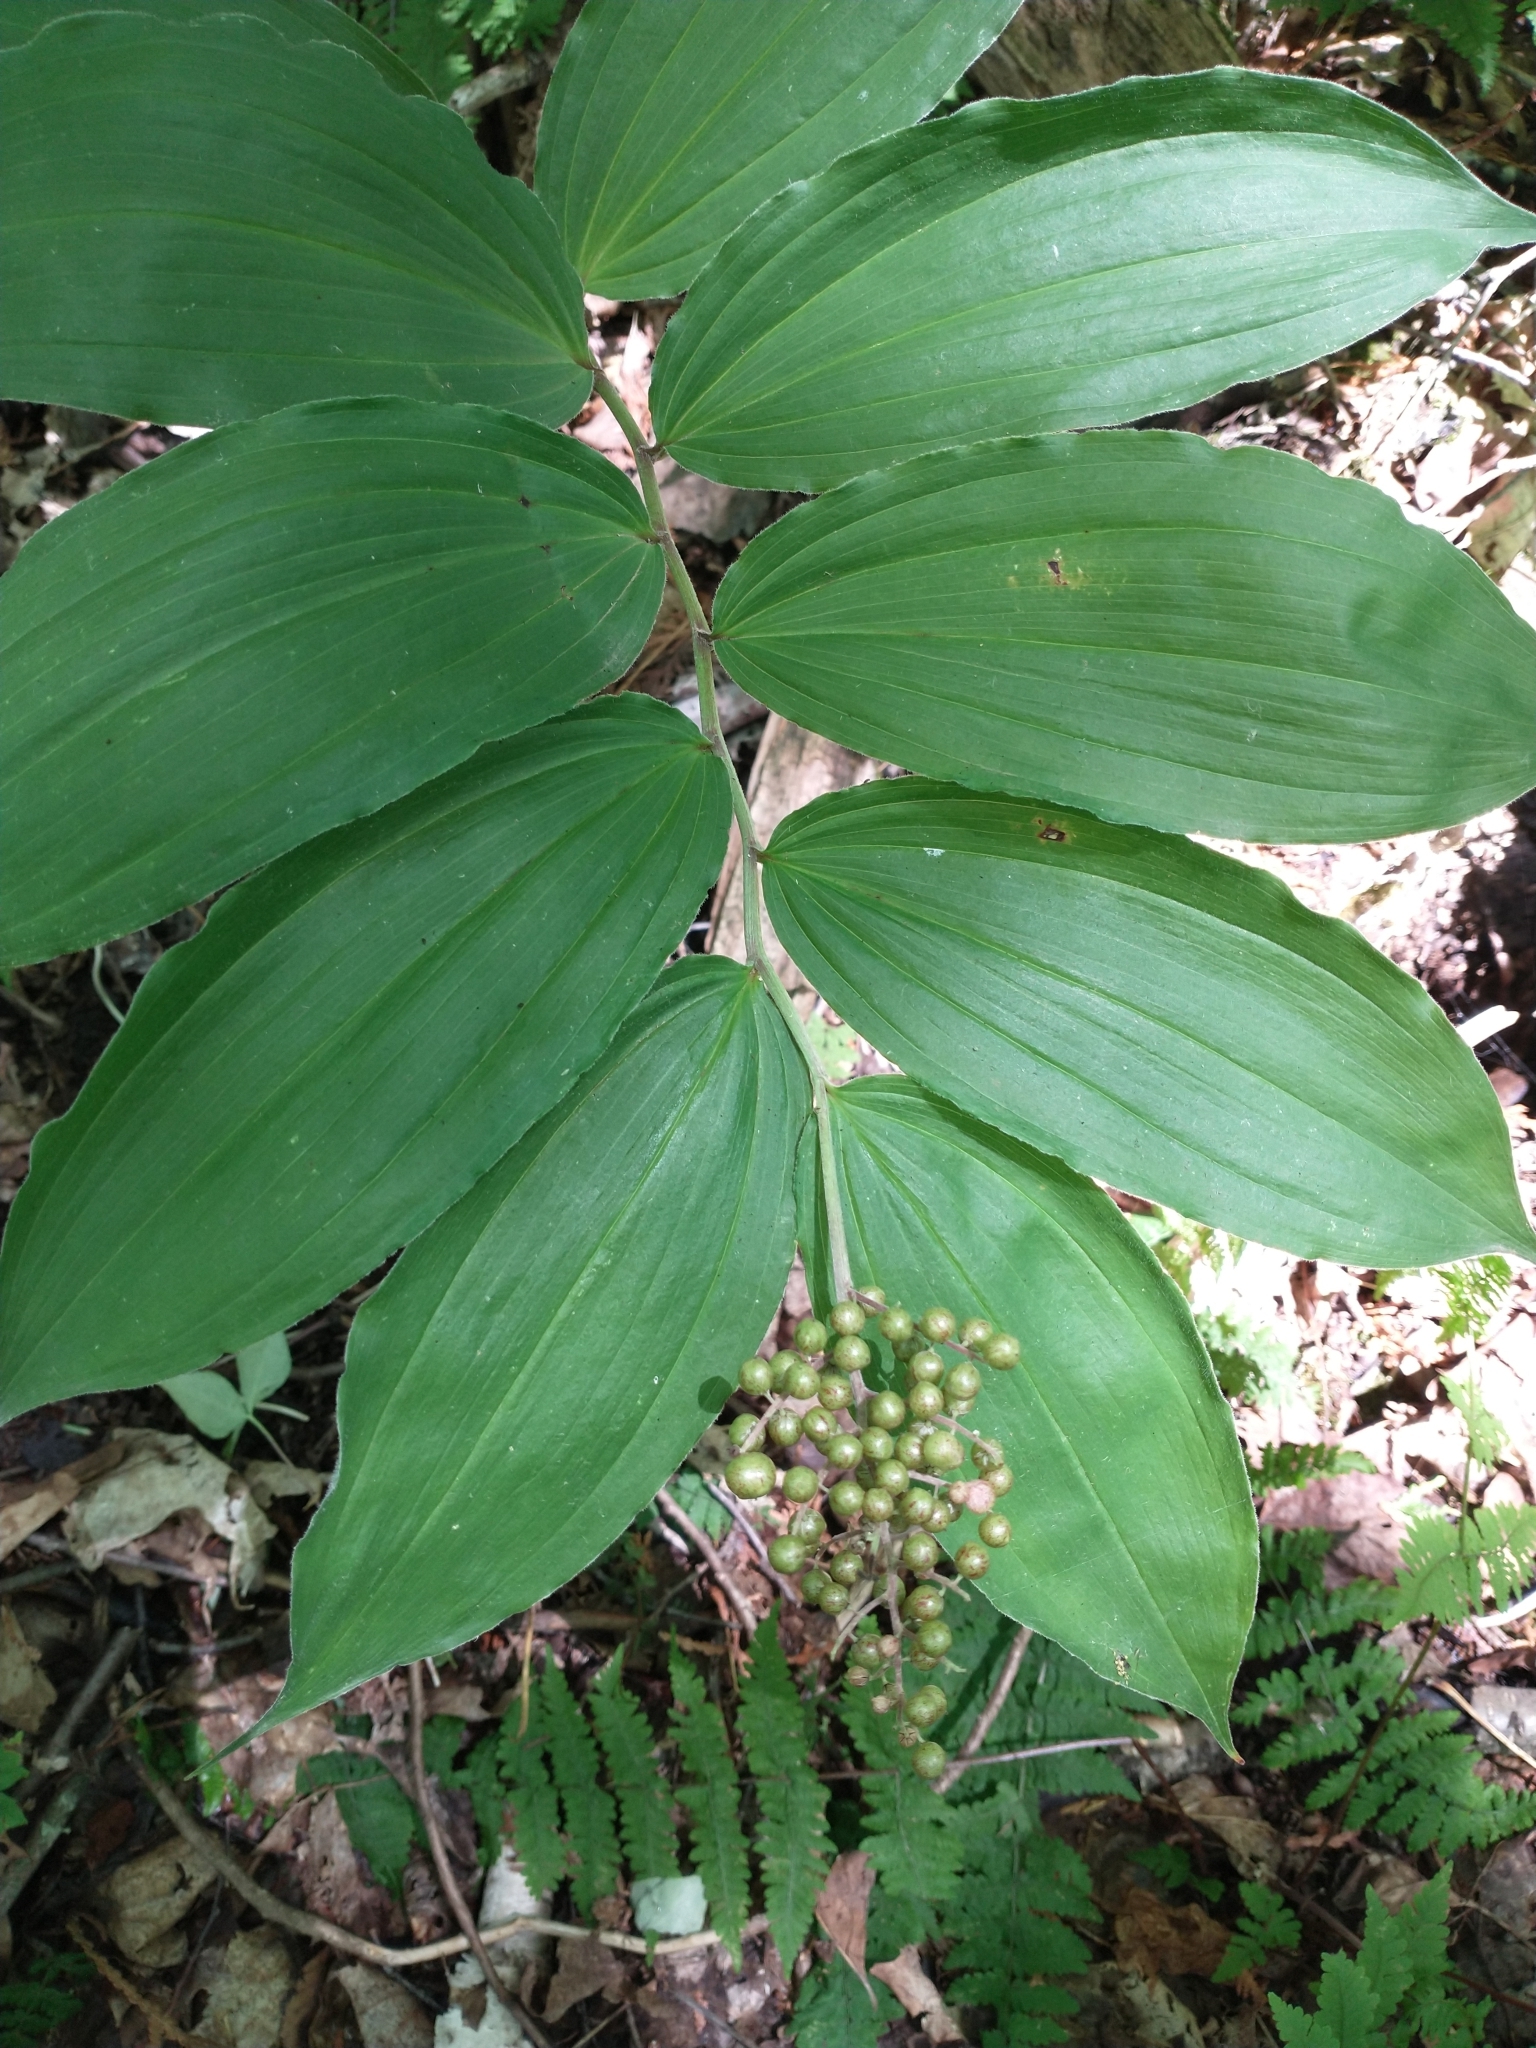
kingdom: Plantae
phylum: Tracheophyta
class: Liliopsida
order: Asparagales
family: Asparagaceae
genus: Maianthemum
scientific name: Maianthemum racemosum
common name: False spikenard
